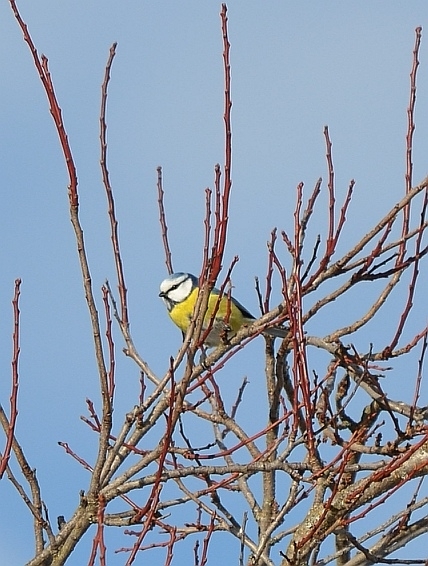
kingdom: Animalia
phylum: Chordata
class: Aves
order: Passeriformes
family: Paridae
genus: Cyanistes
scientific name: Cyanistes caeruleus
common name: Eurasian blue tit
